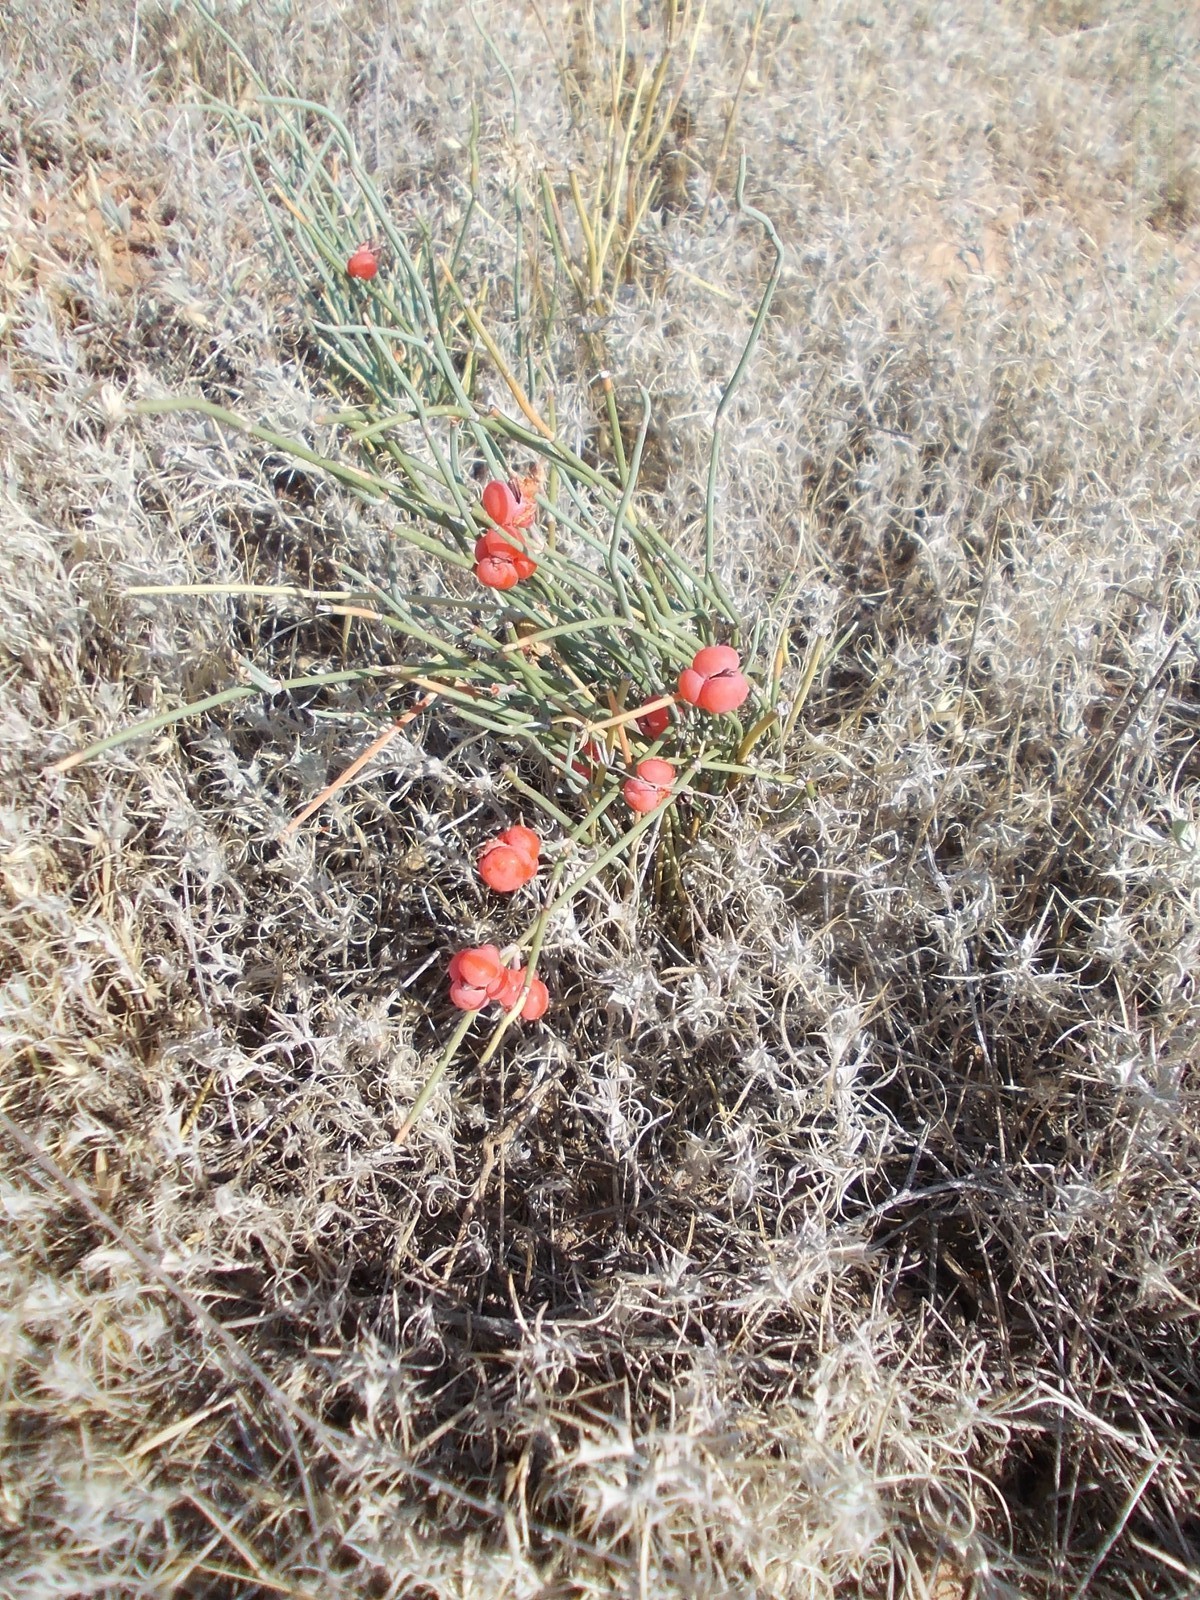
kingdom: Plantae
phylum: Tracheophyta
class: Gnetopsida
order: Ephedrales
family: Ephedraceae
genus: Ephedra
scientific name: Ephedra distachya
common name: Sea grape
